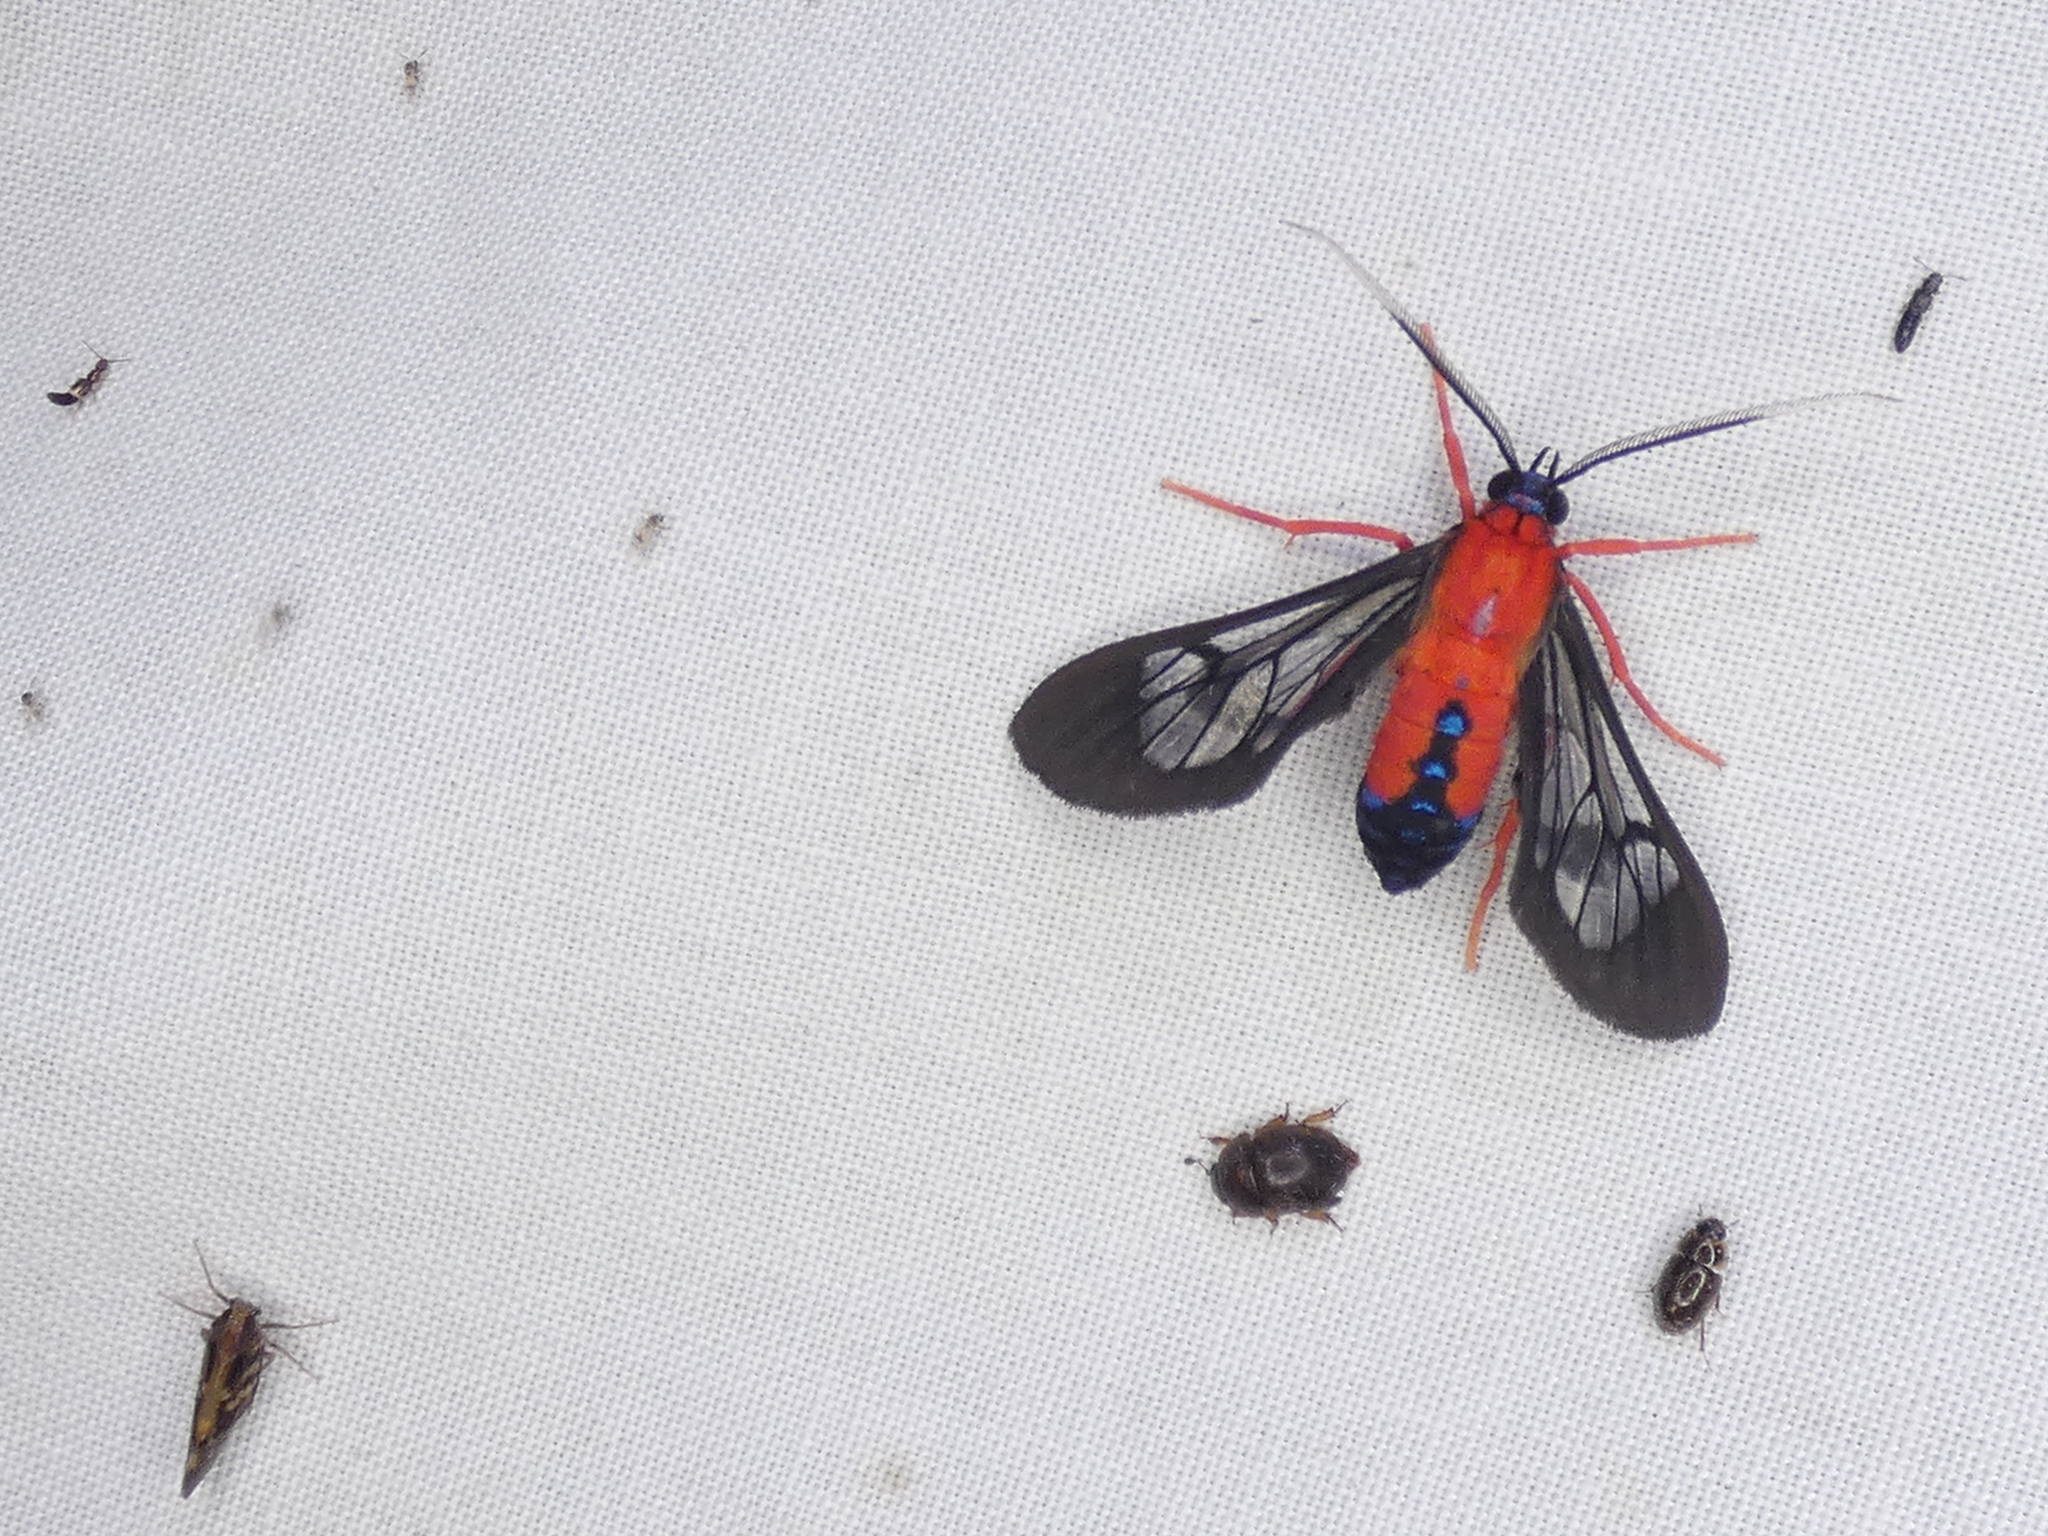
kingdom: Animalia
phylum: Arthropoda
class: Insecta
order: Lepidoptera
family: Erebidae
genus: Cosmosoma
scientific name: Cosmosoma myrodora
